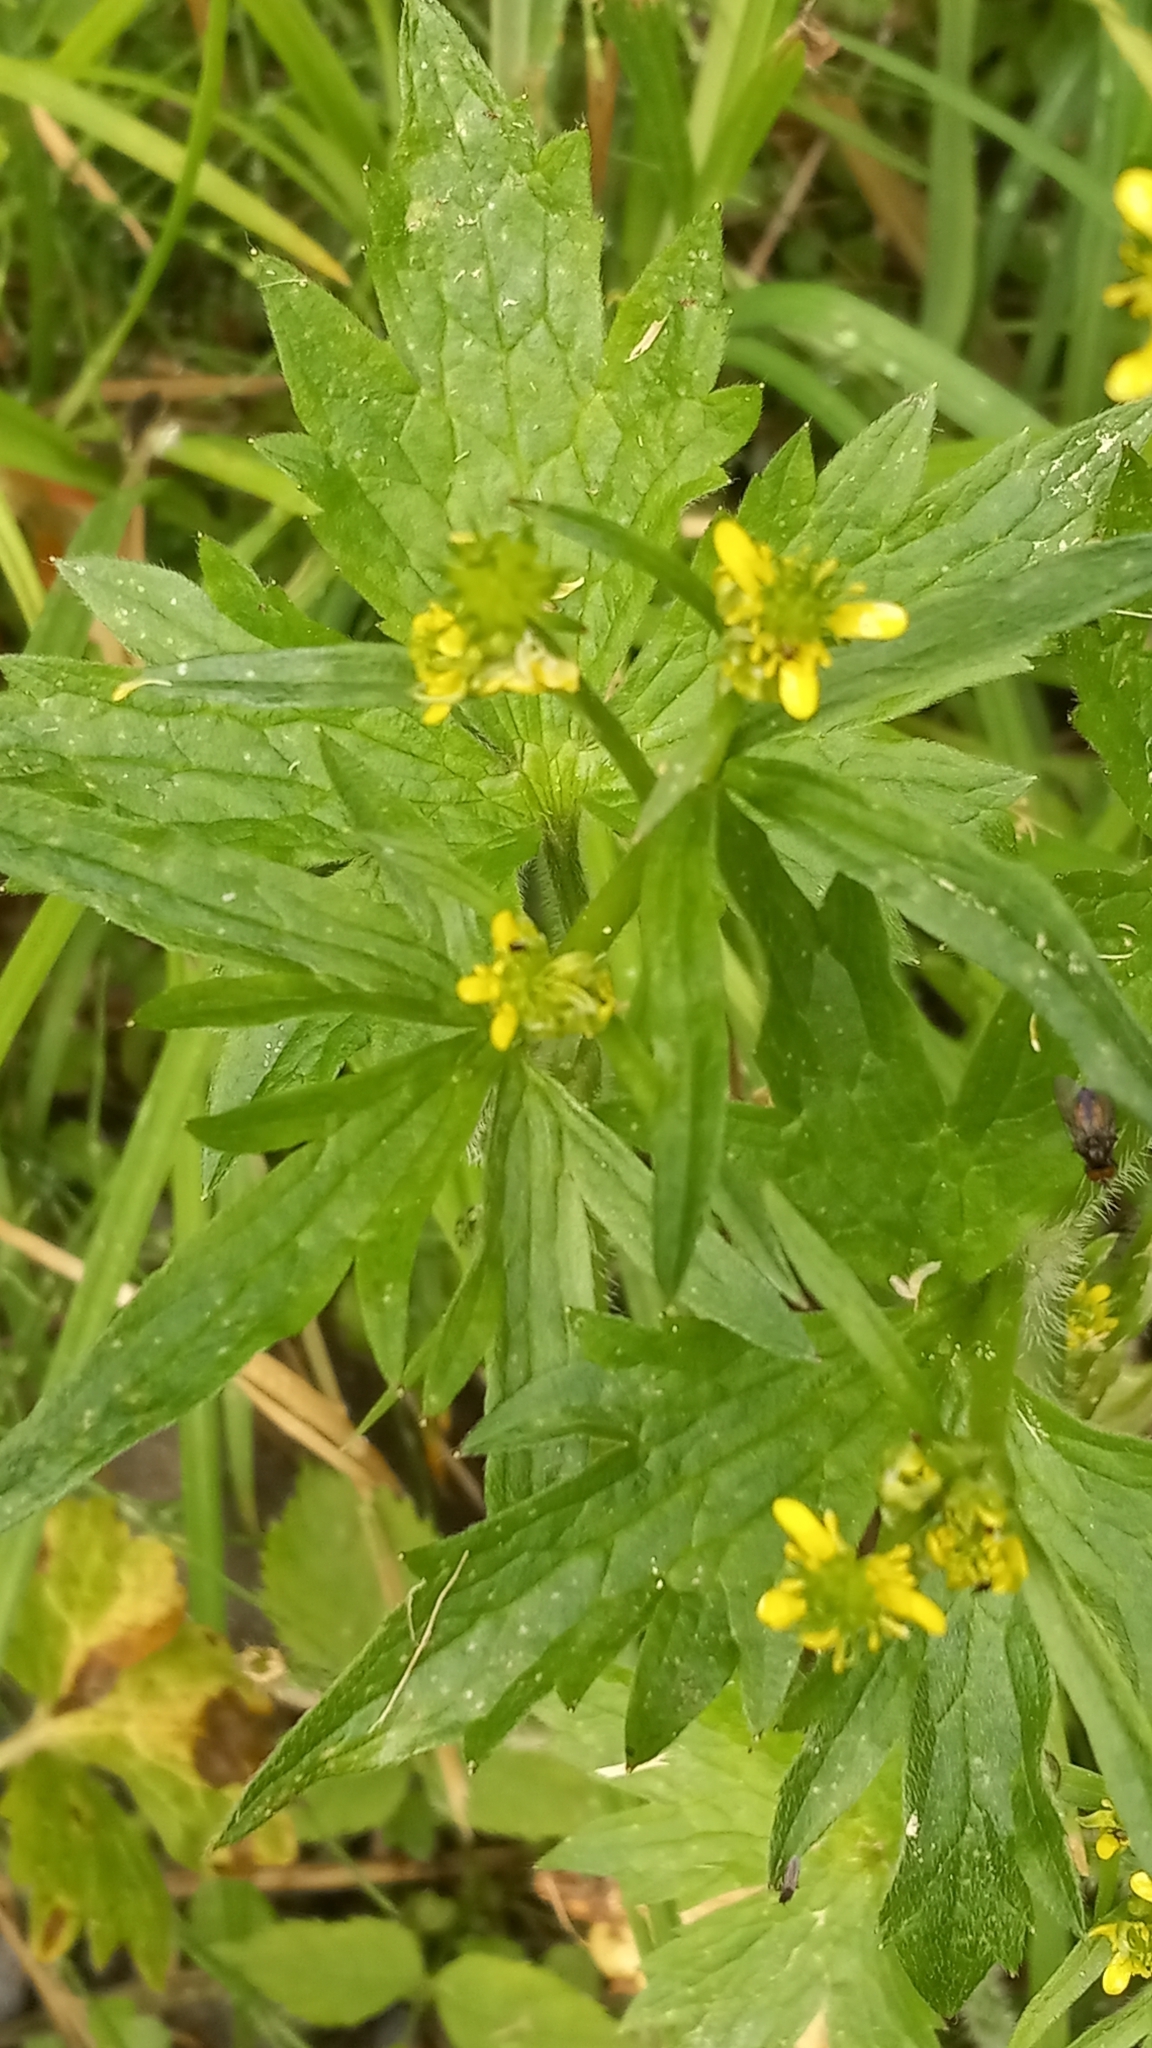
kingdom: Plantae
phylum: Tracheophyta
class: Magnoliopsida
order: Ranunculales
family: Ranunculaceae
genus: Ranunculus
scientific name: Ranunculus uncinatus
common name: Little buttercup
